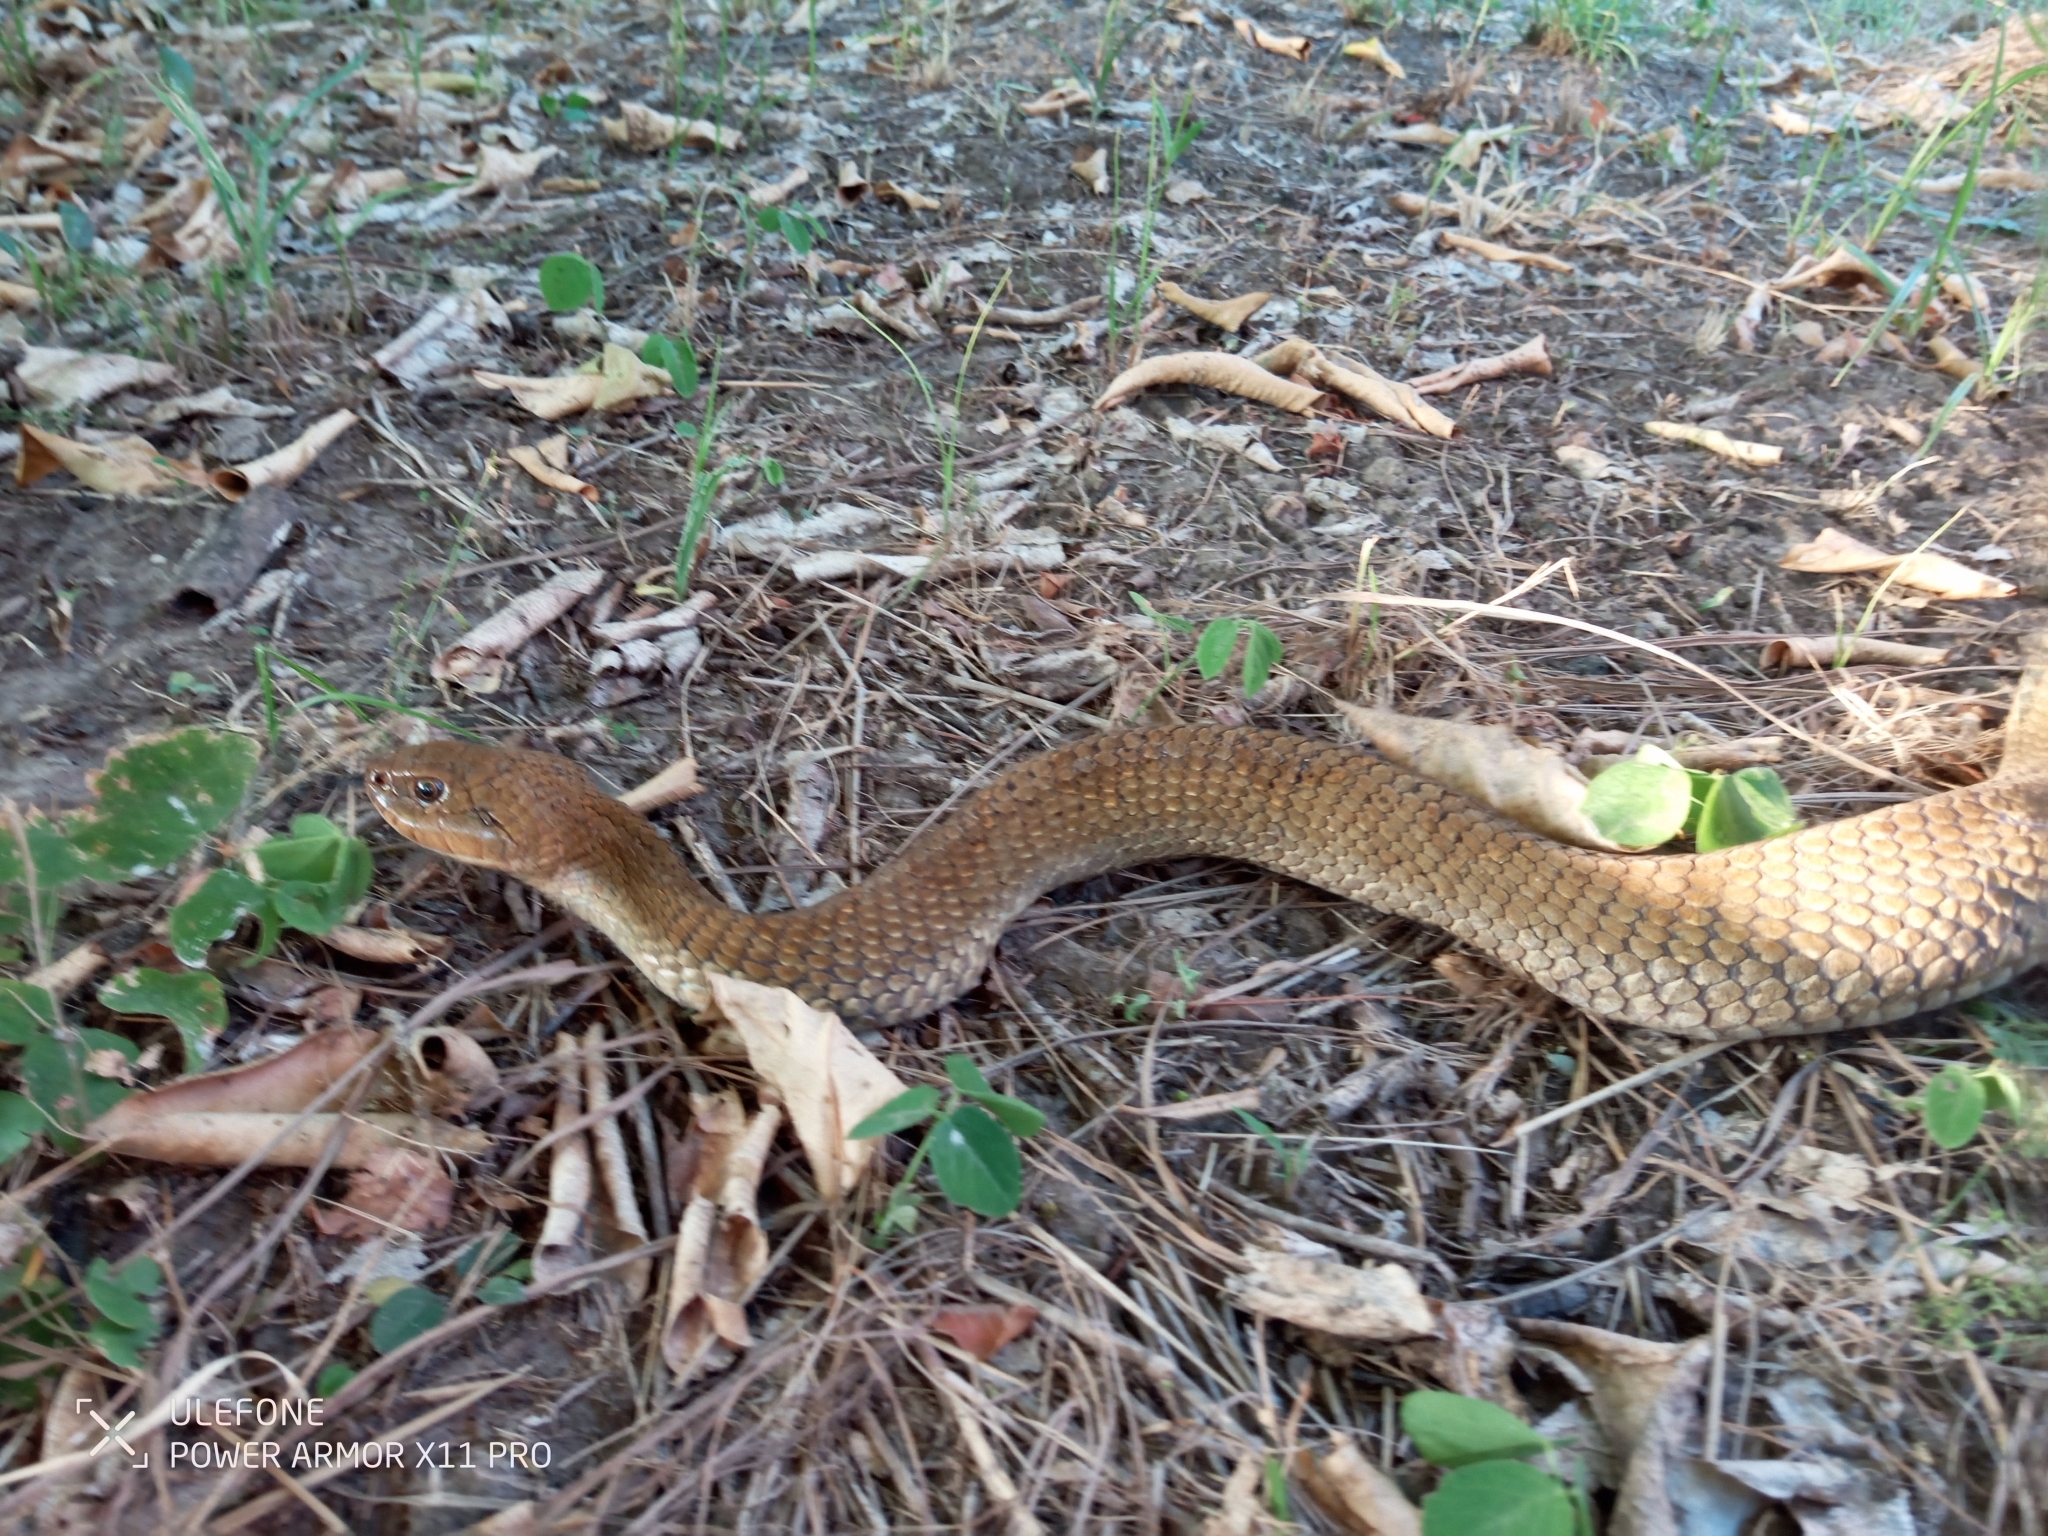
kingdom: Animalia
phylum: Chordata
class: Squamata
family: Colubridae
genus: Xenodon
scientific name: Xenodon merremii
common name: Wagler's snake
